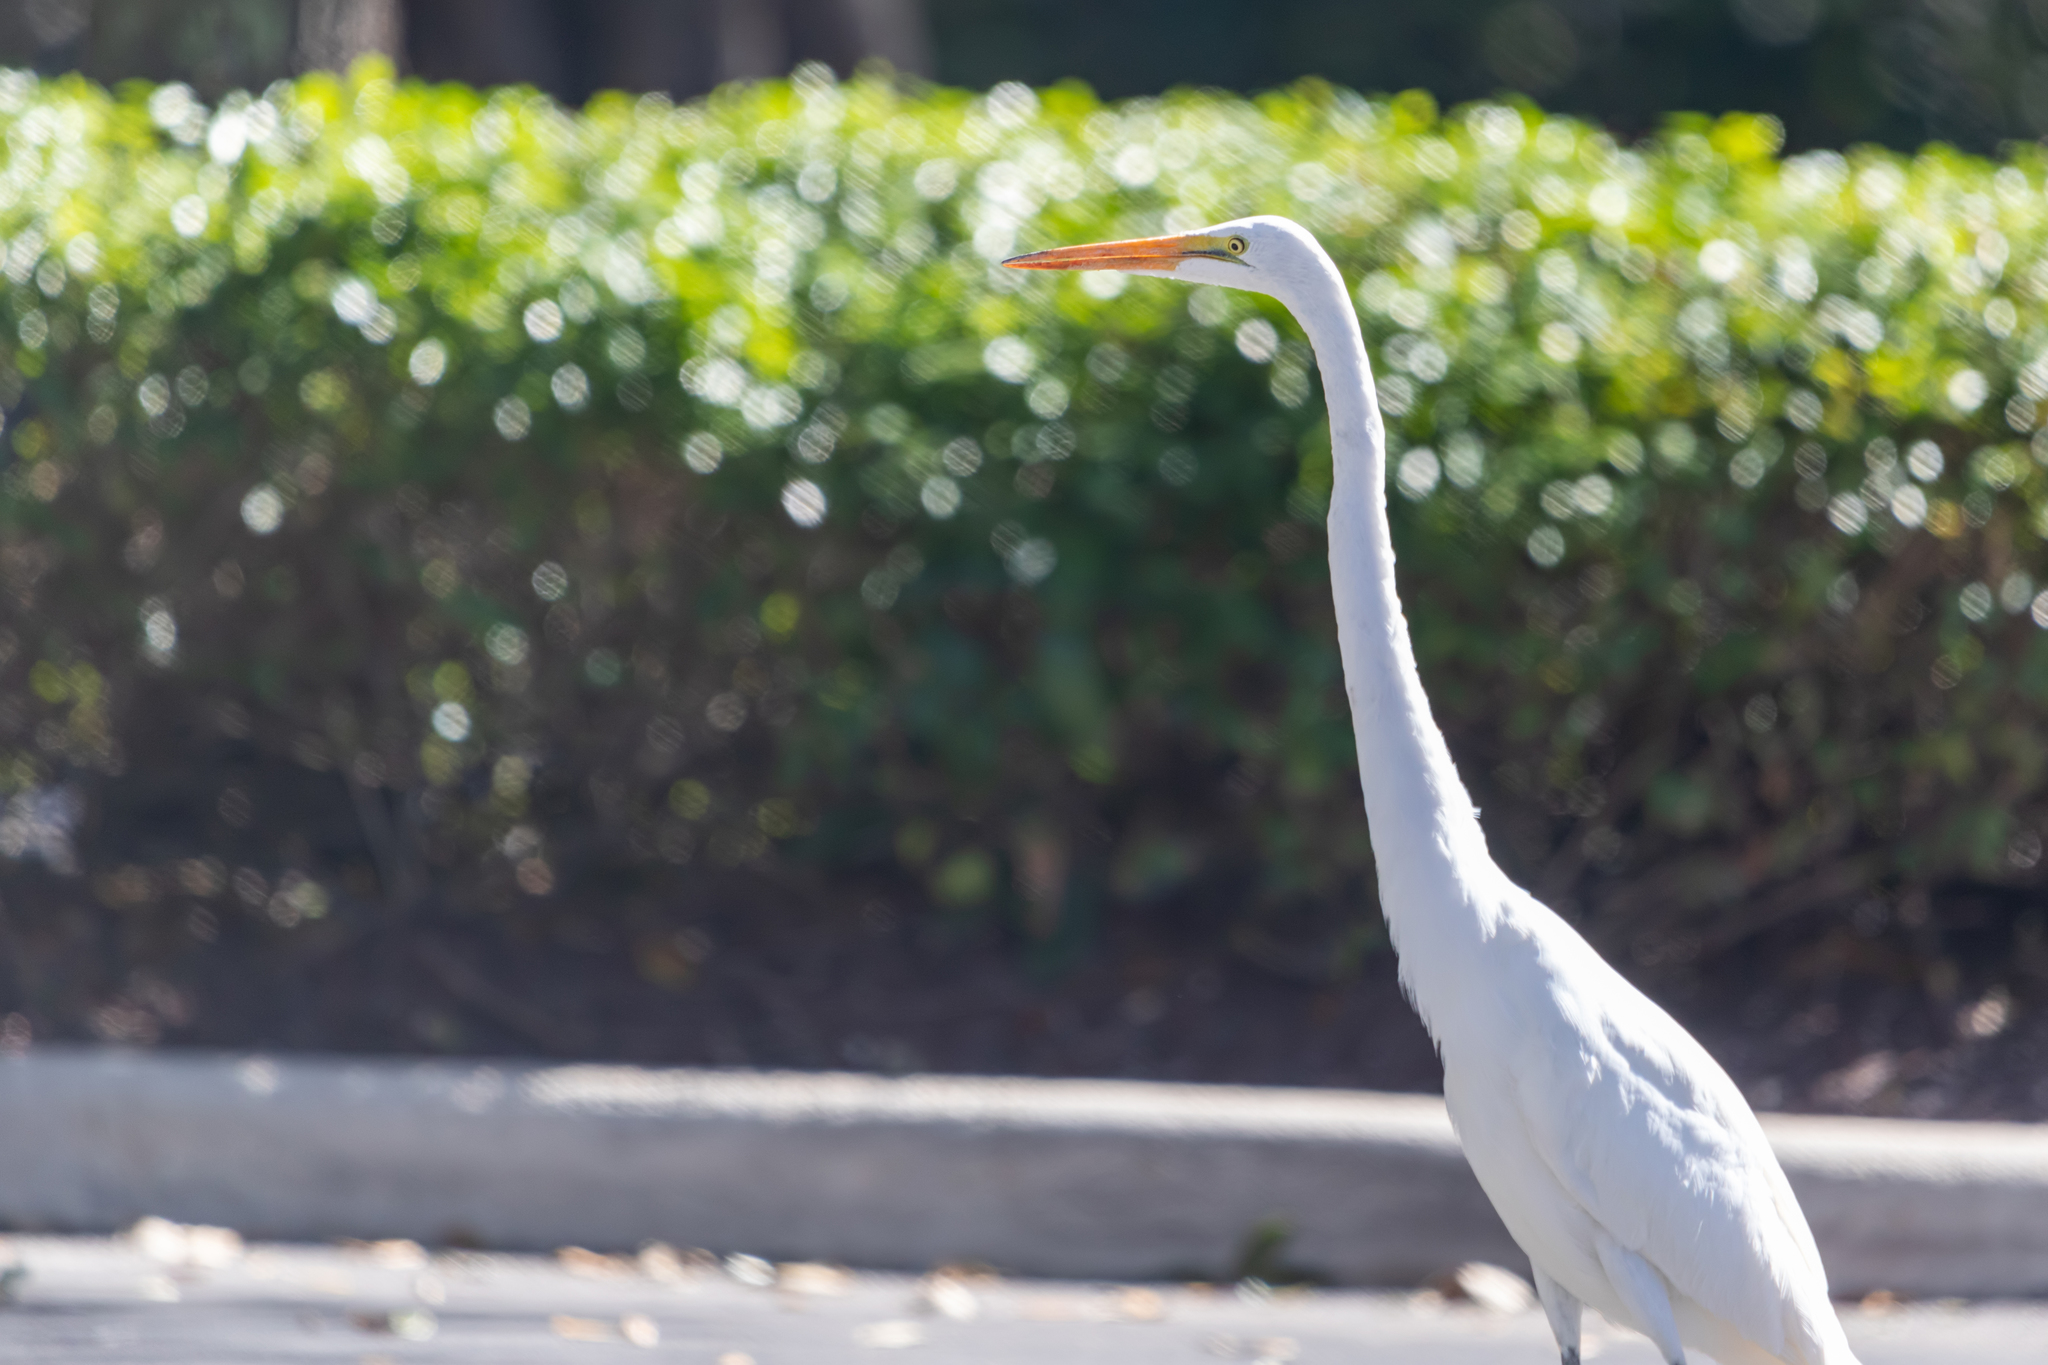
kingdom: Animalia
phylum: Chordata
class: Aves
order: Pelecaniformes
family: Ardeidae
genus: Ardea
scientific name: Ardea alba
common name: Great egret
